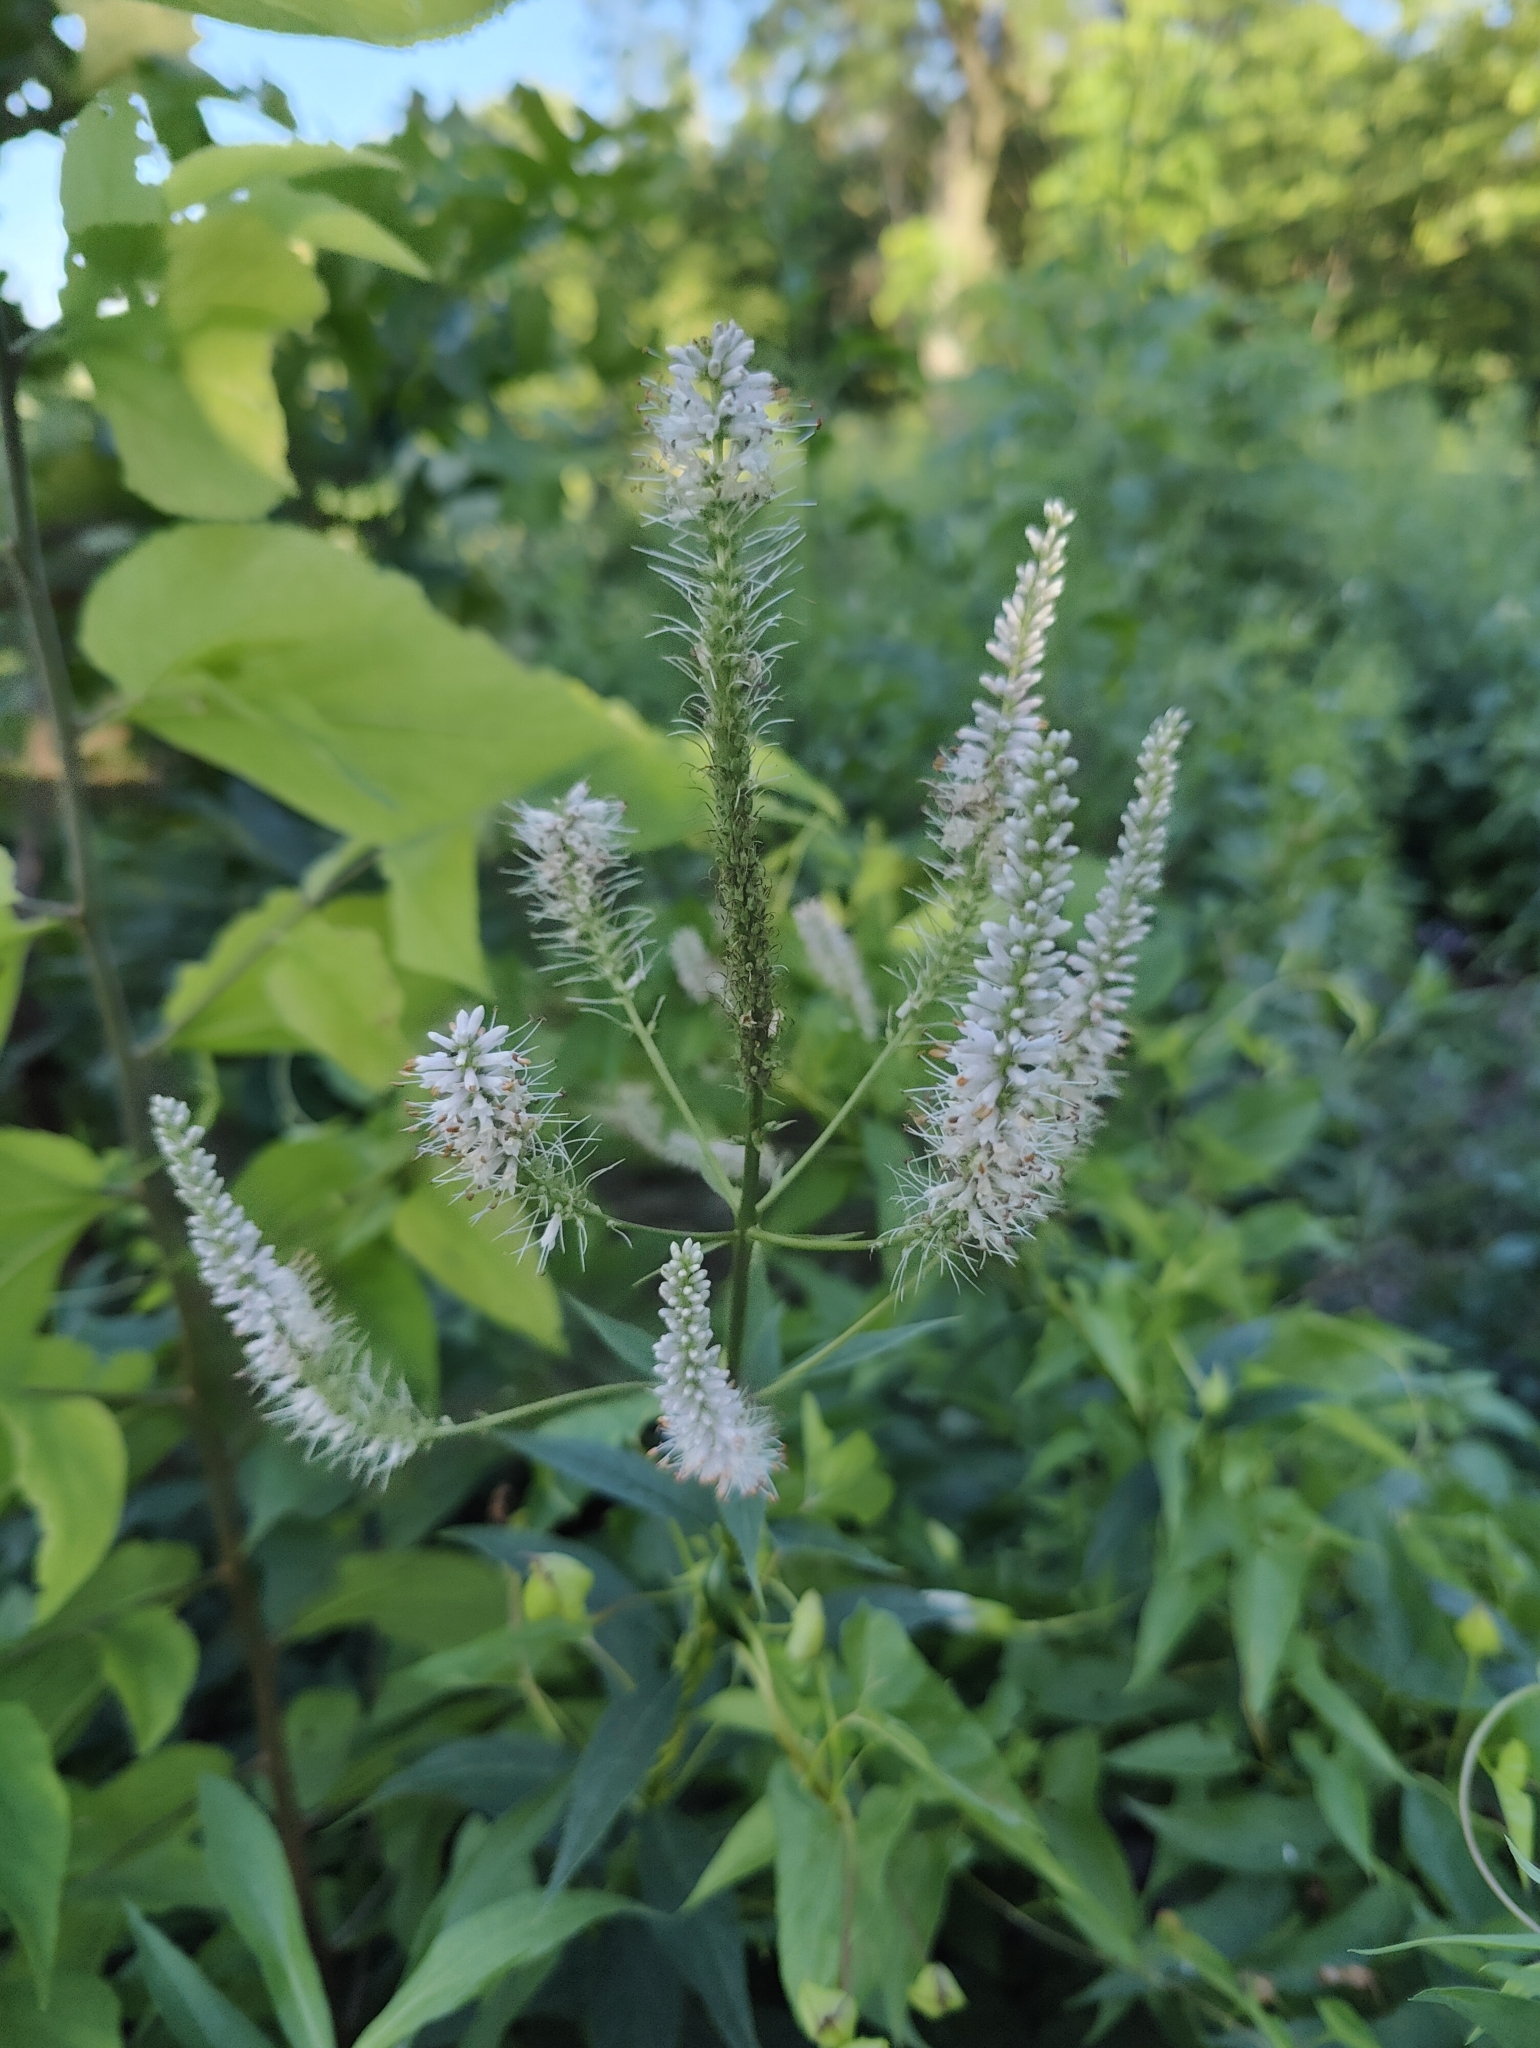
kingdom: Plantae
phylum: Tracheophyta
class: Magnoliopsida
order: Lamiales
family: Plantaginaceae
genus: Veronicastrum
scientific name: Veronicastrum virginicum
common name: Blackroot
